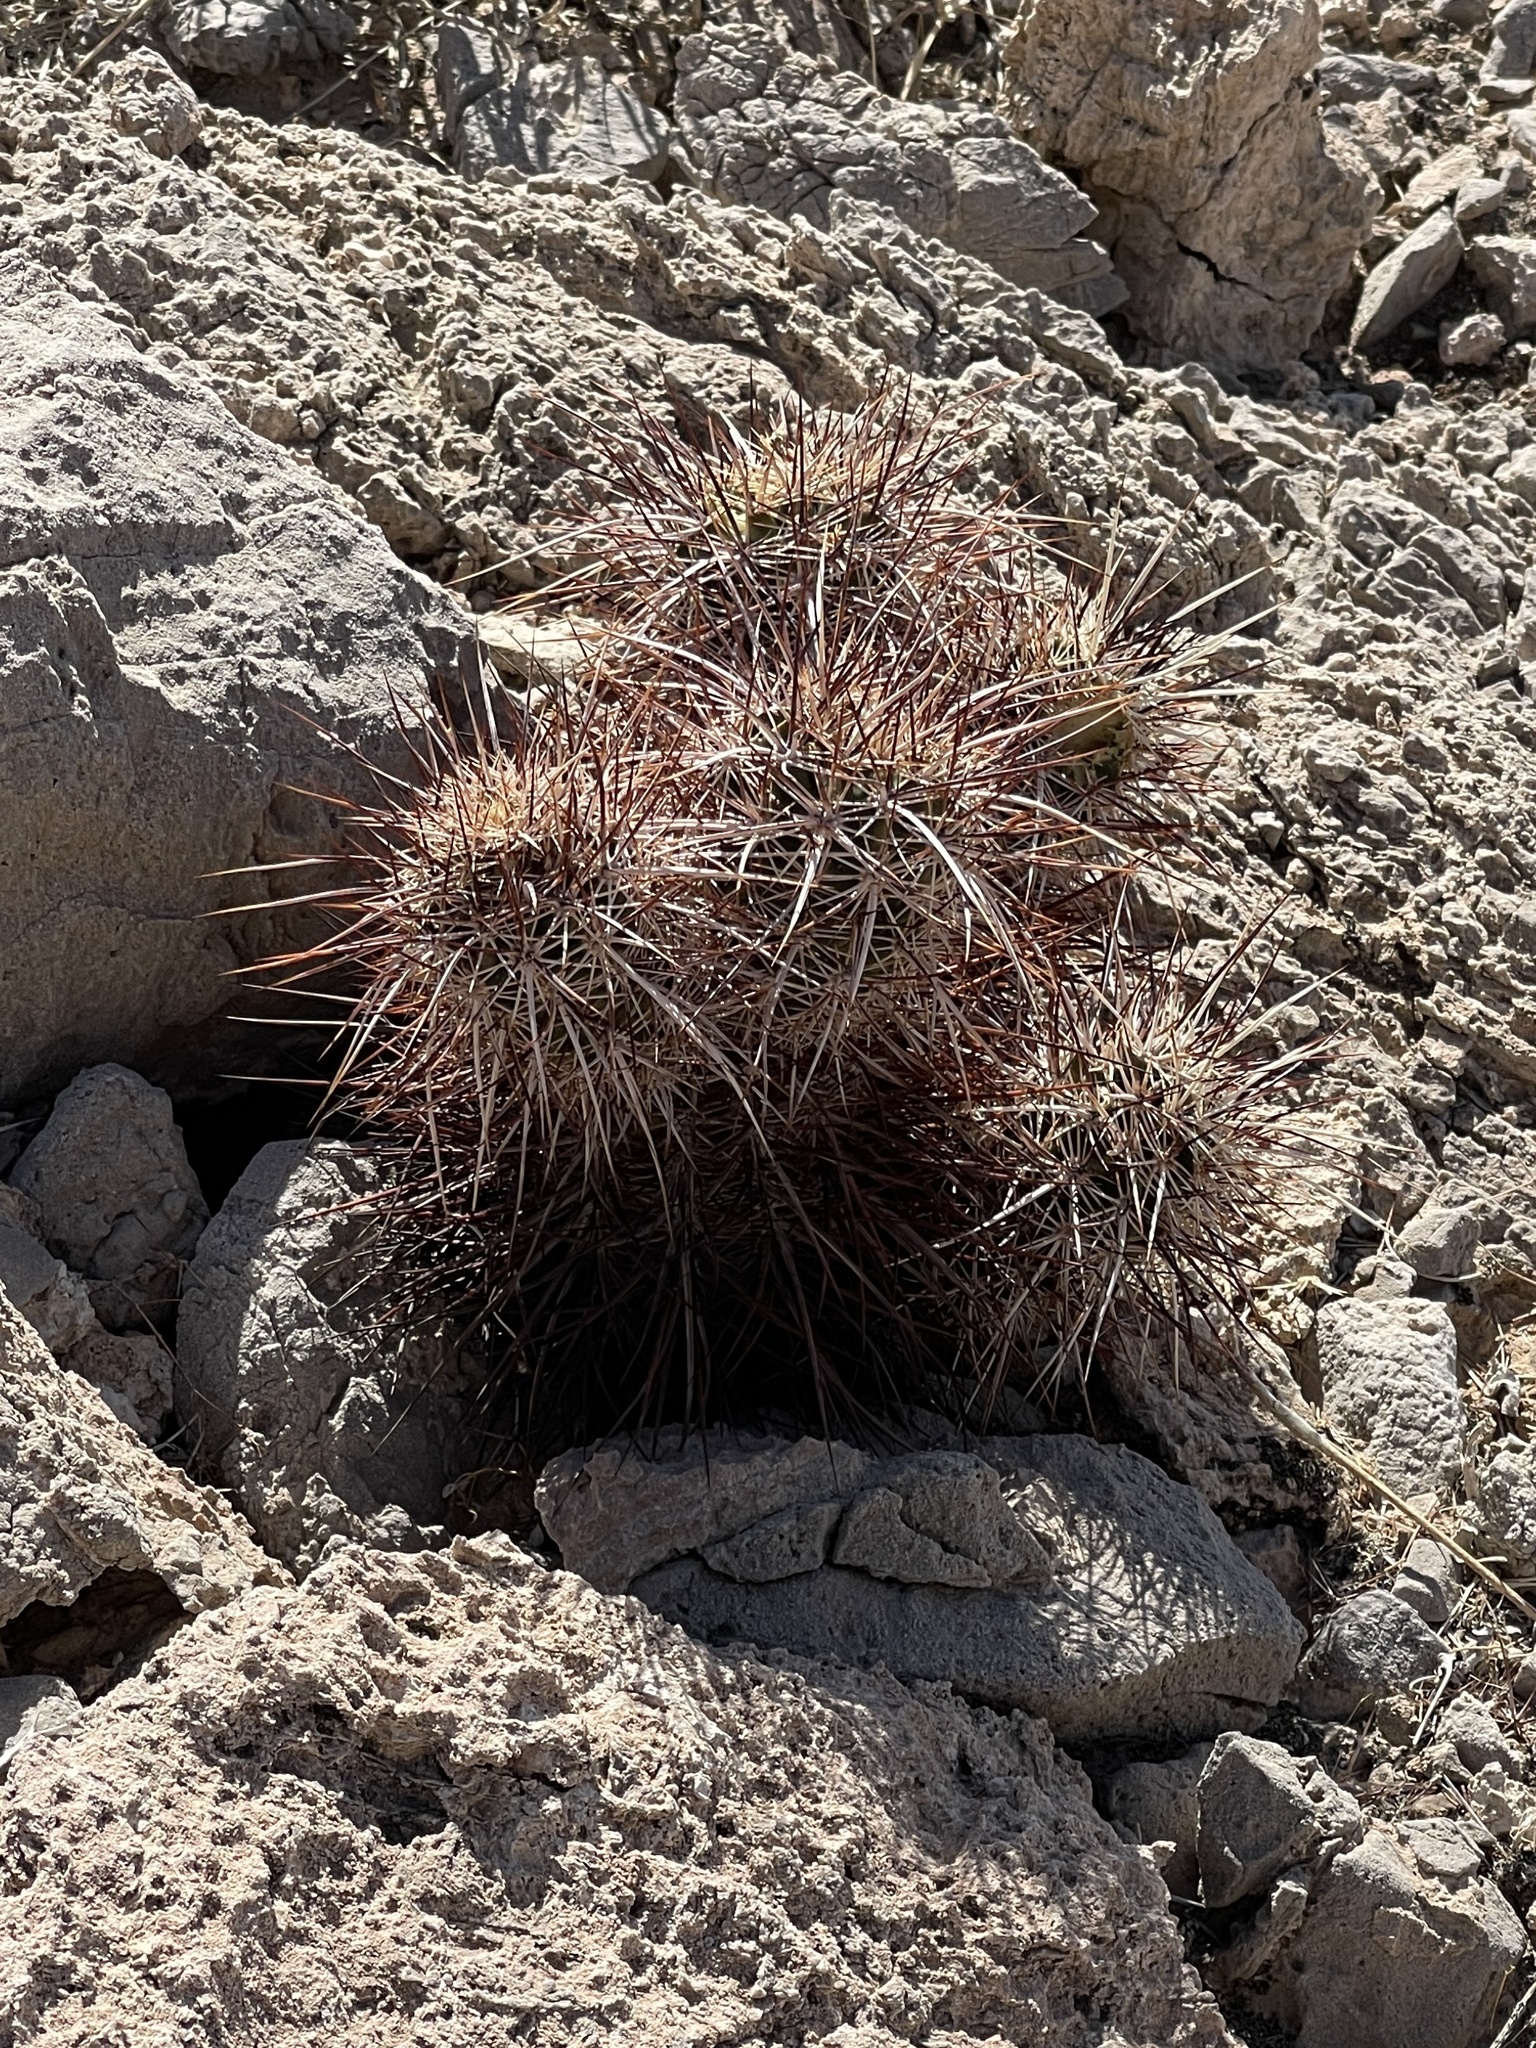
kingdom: Plantae
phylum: Tracheophyta
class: Magnoliopsida
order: Caryophyllales
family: Cactaceae
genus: Echinocereus
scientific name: Echinocereus engelmannii
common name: Engelmann's hedgehog cactus
